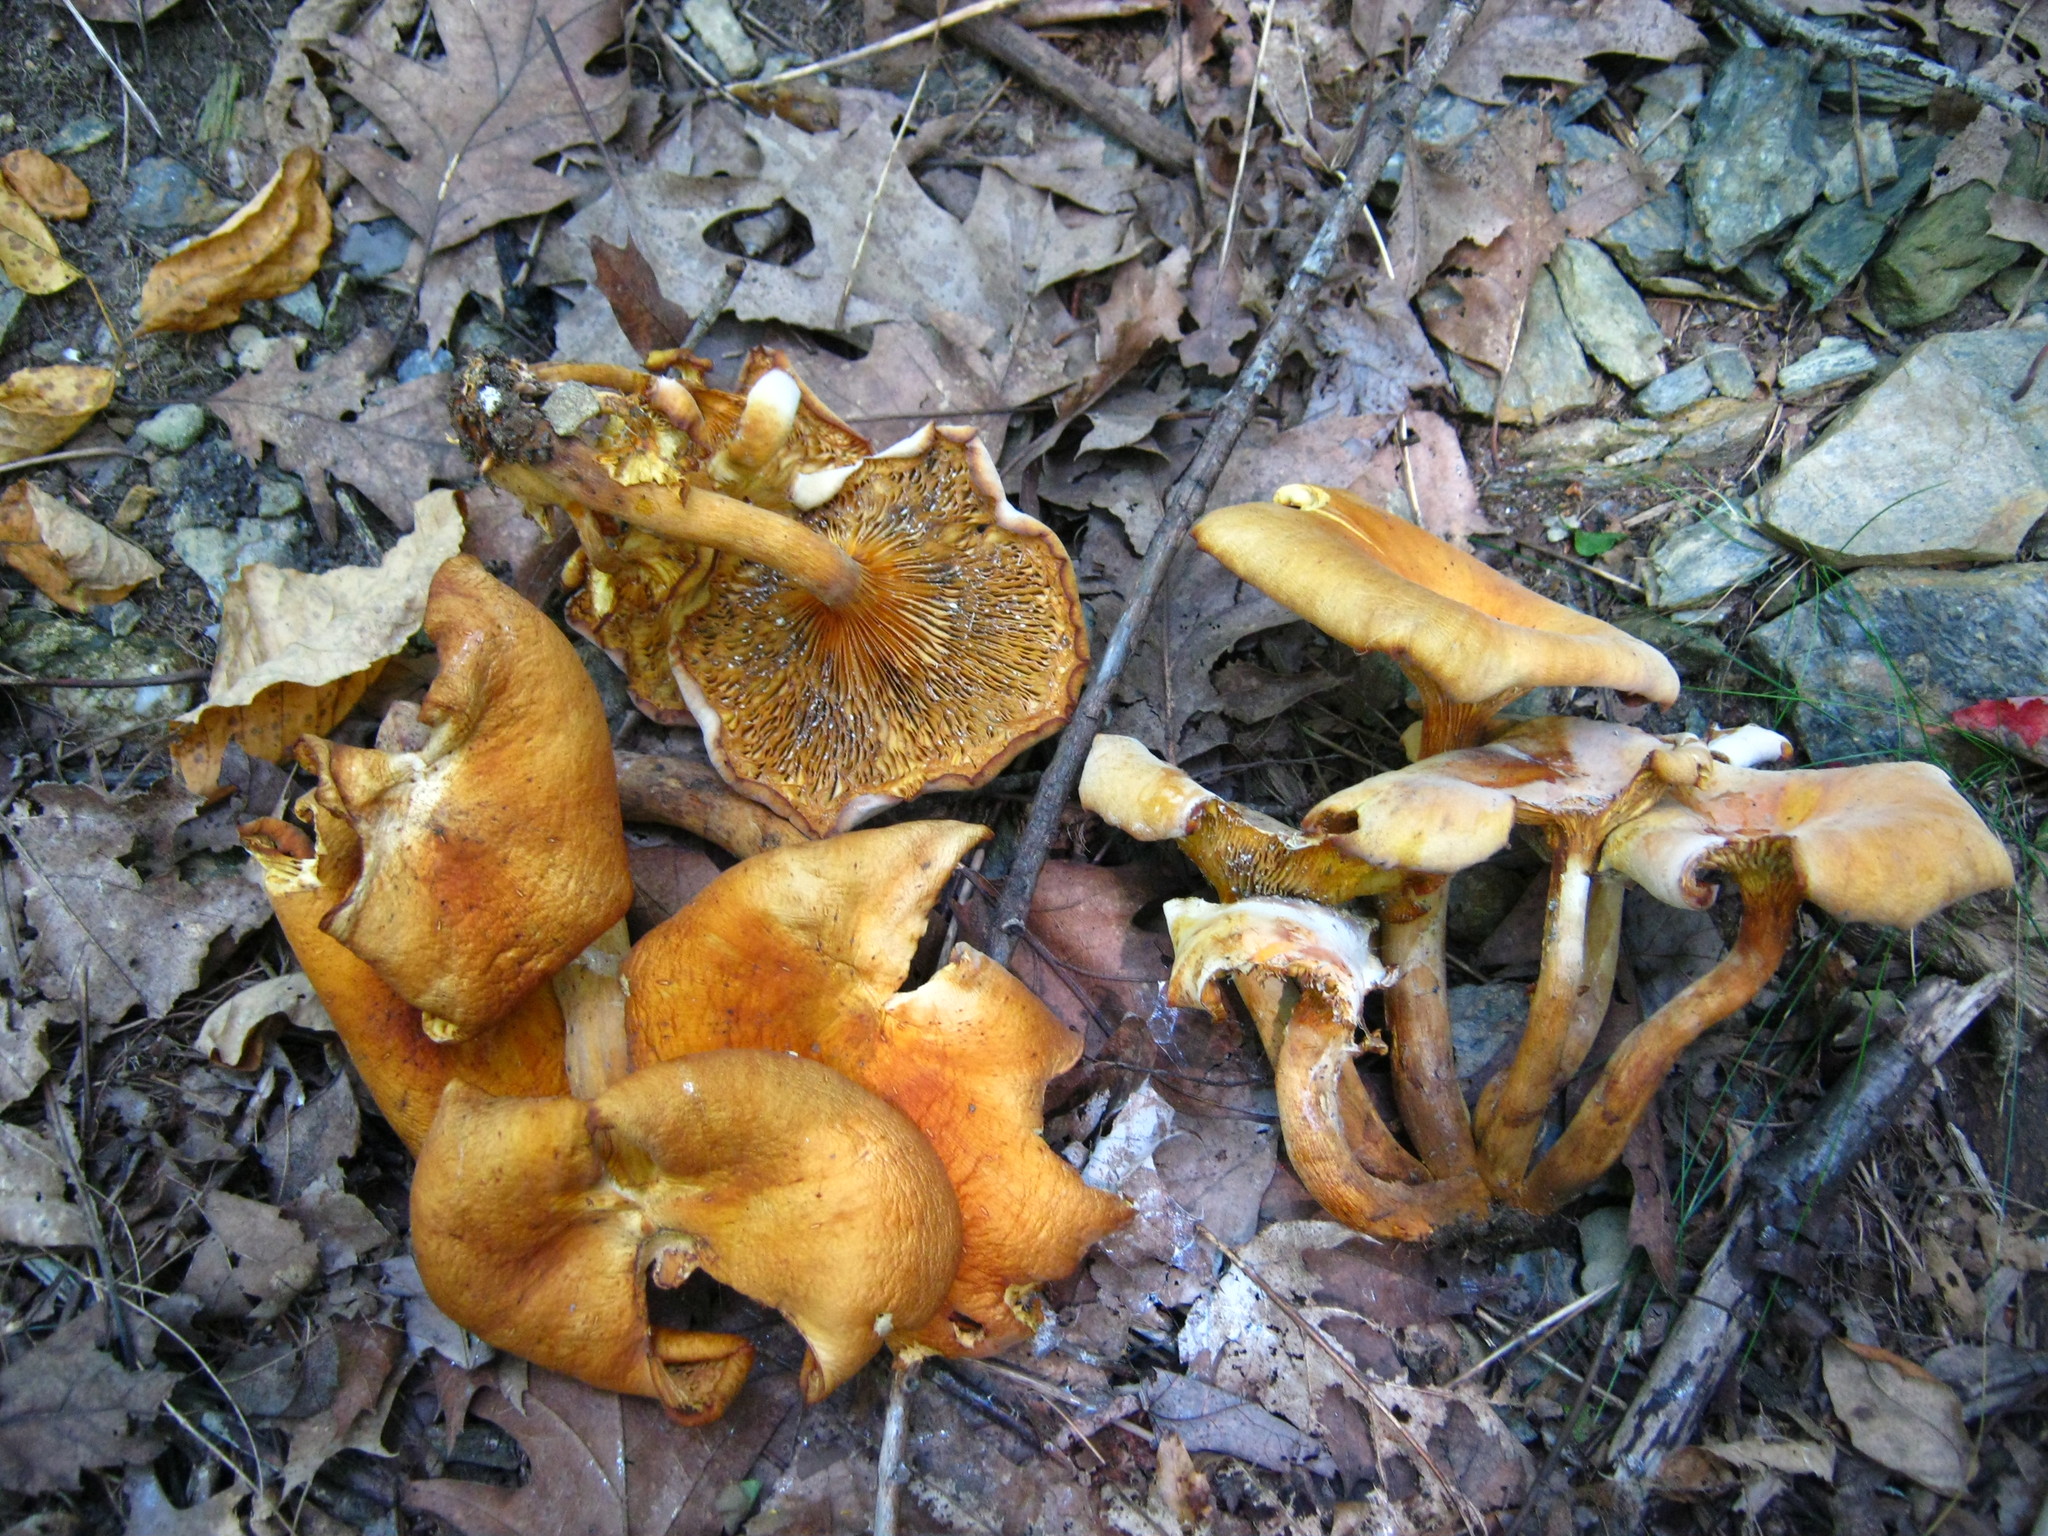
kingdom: Fungi
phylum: Basidiomycota
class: Agaricomycetes
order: Agaricales
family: Omphalotaceae
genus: Omphalotus
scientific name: Omphalotus illudens
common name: Jack o lantern
